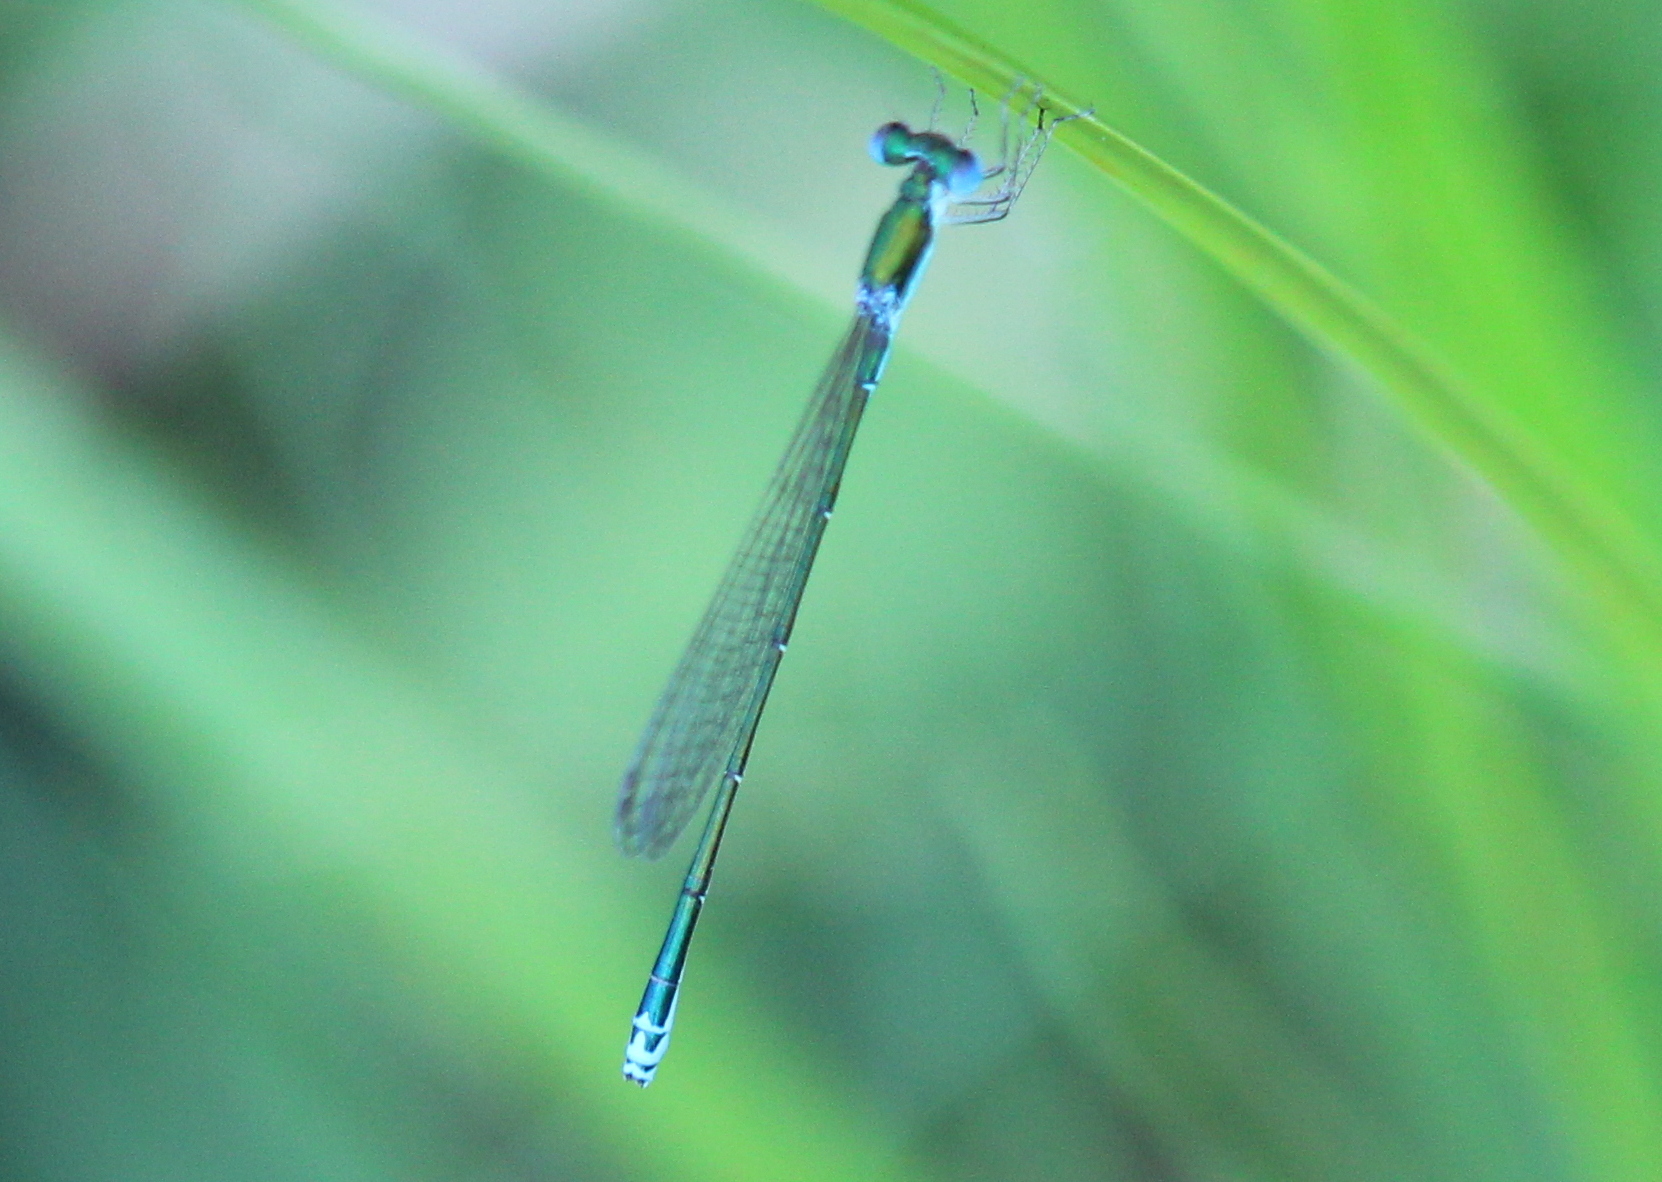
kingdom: Animalia
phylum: Arthropoda
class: Insecta
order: Odonata
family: Coenagrionidae
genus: Nehalennia
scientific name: Nehalennia irene
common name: Sedge sprite
